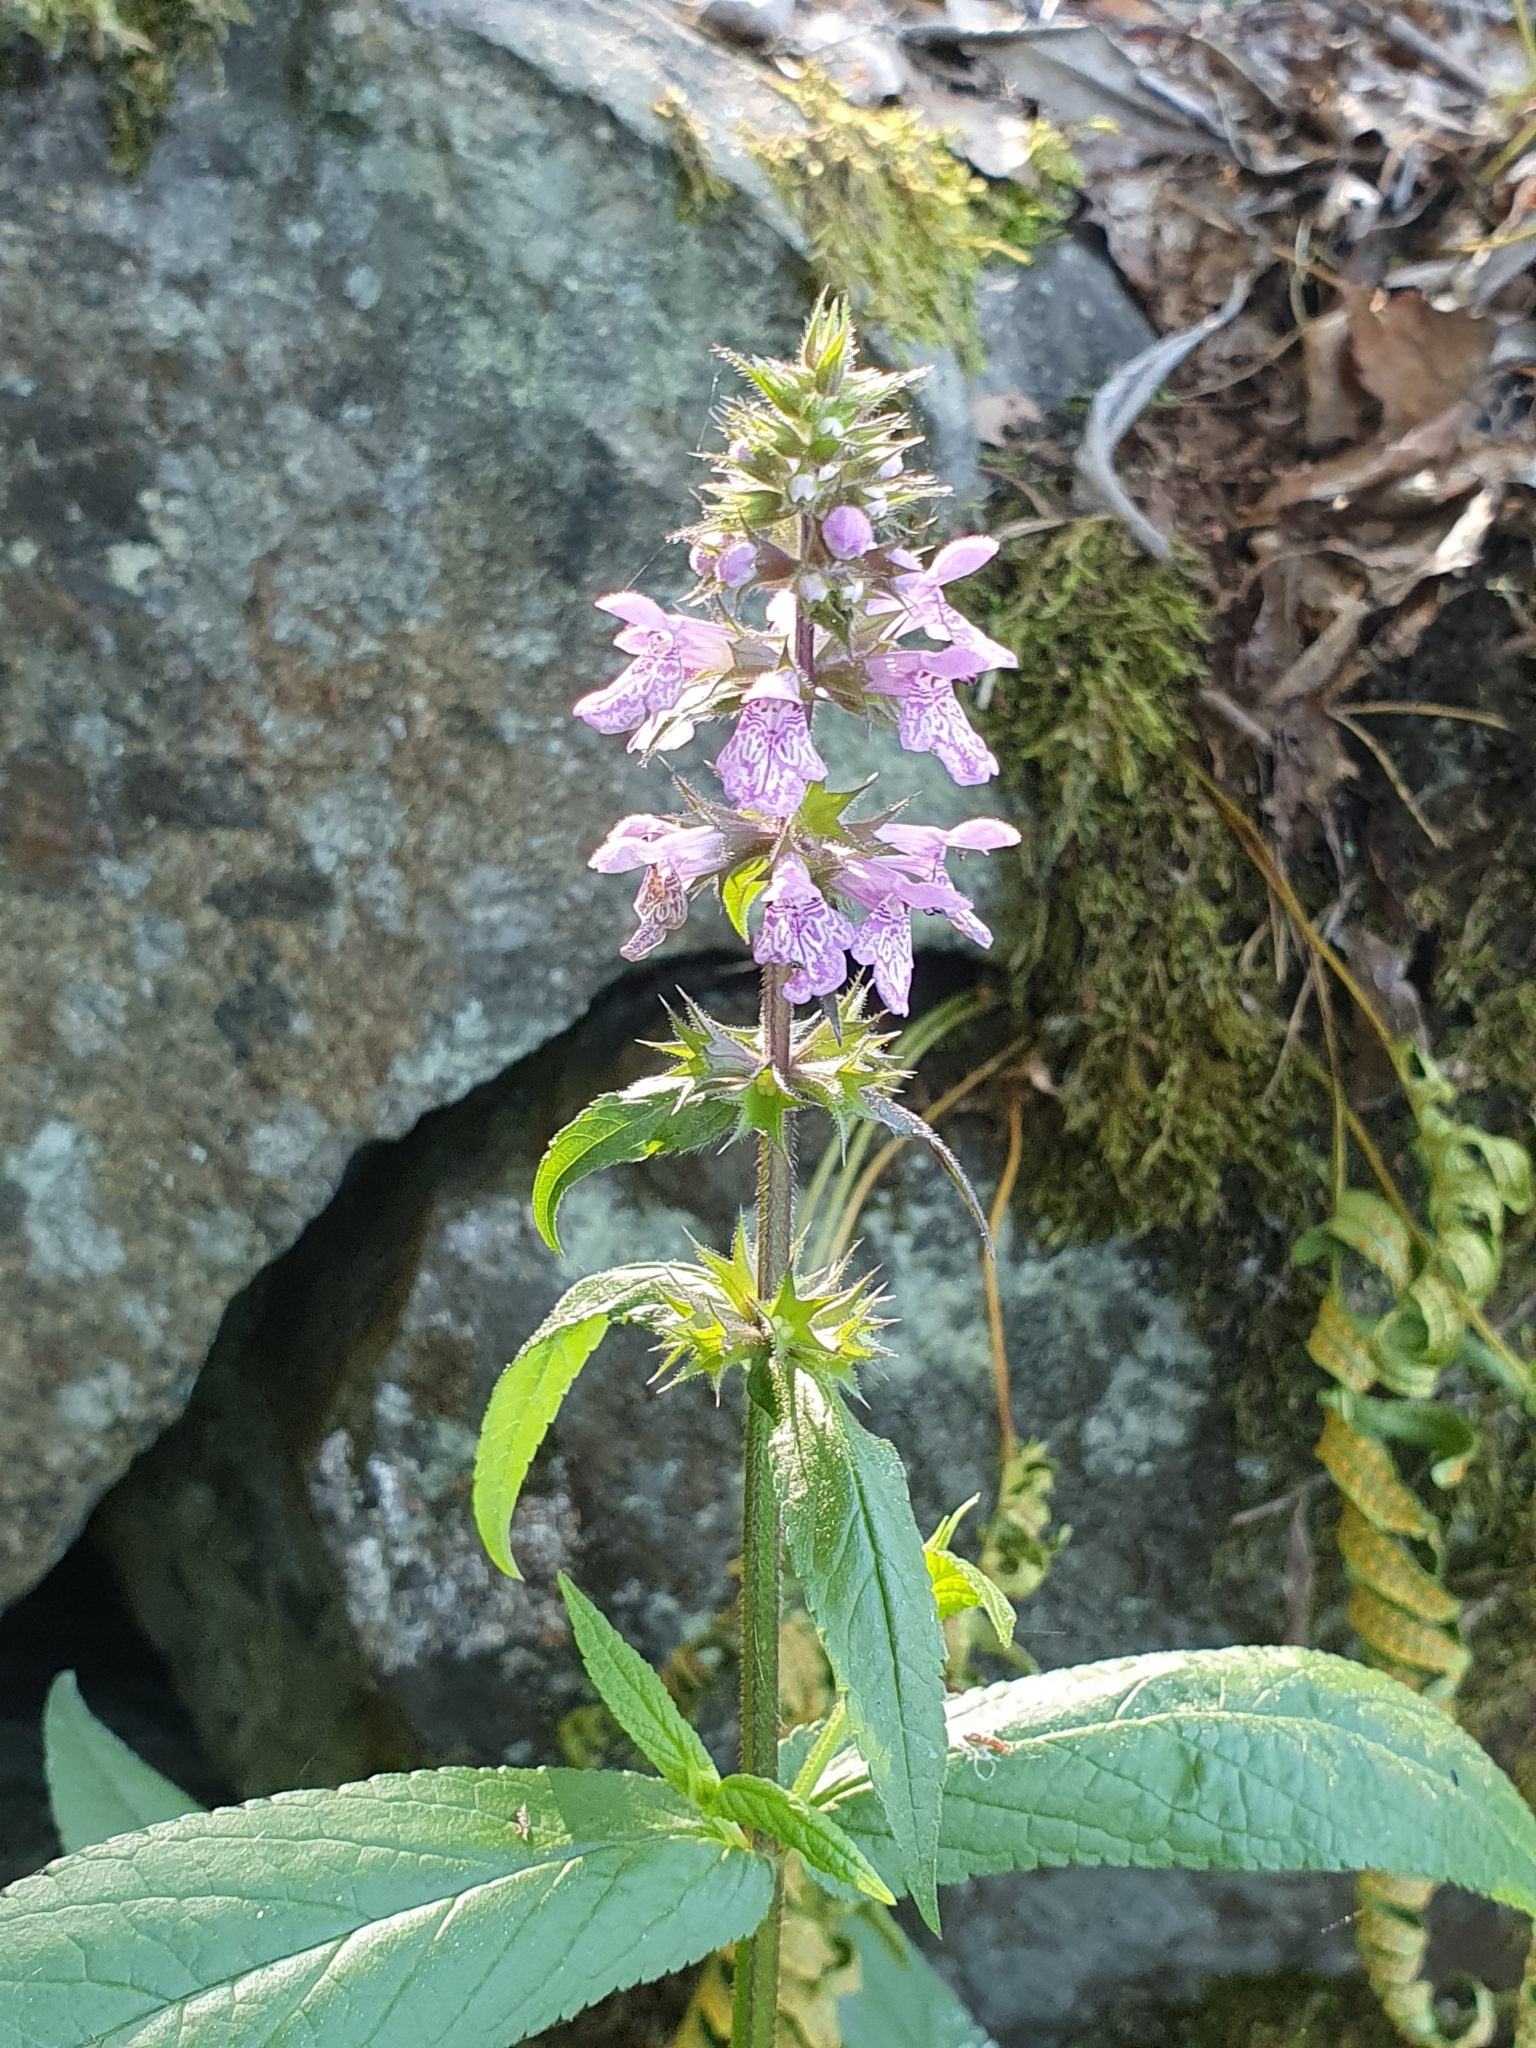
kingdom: Plantae
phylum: Tracheophyta
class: Magnoliopsida
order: Lamiales
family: Lamiaceae
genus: Stachys
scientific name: Stachys palustris
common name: Marsh woundwort
